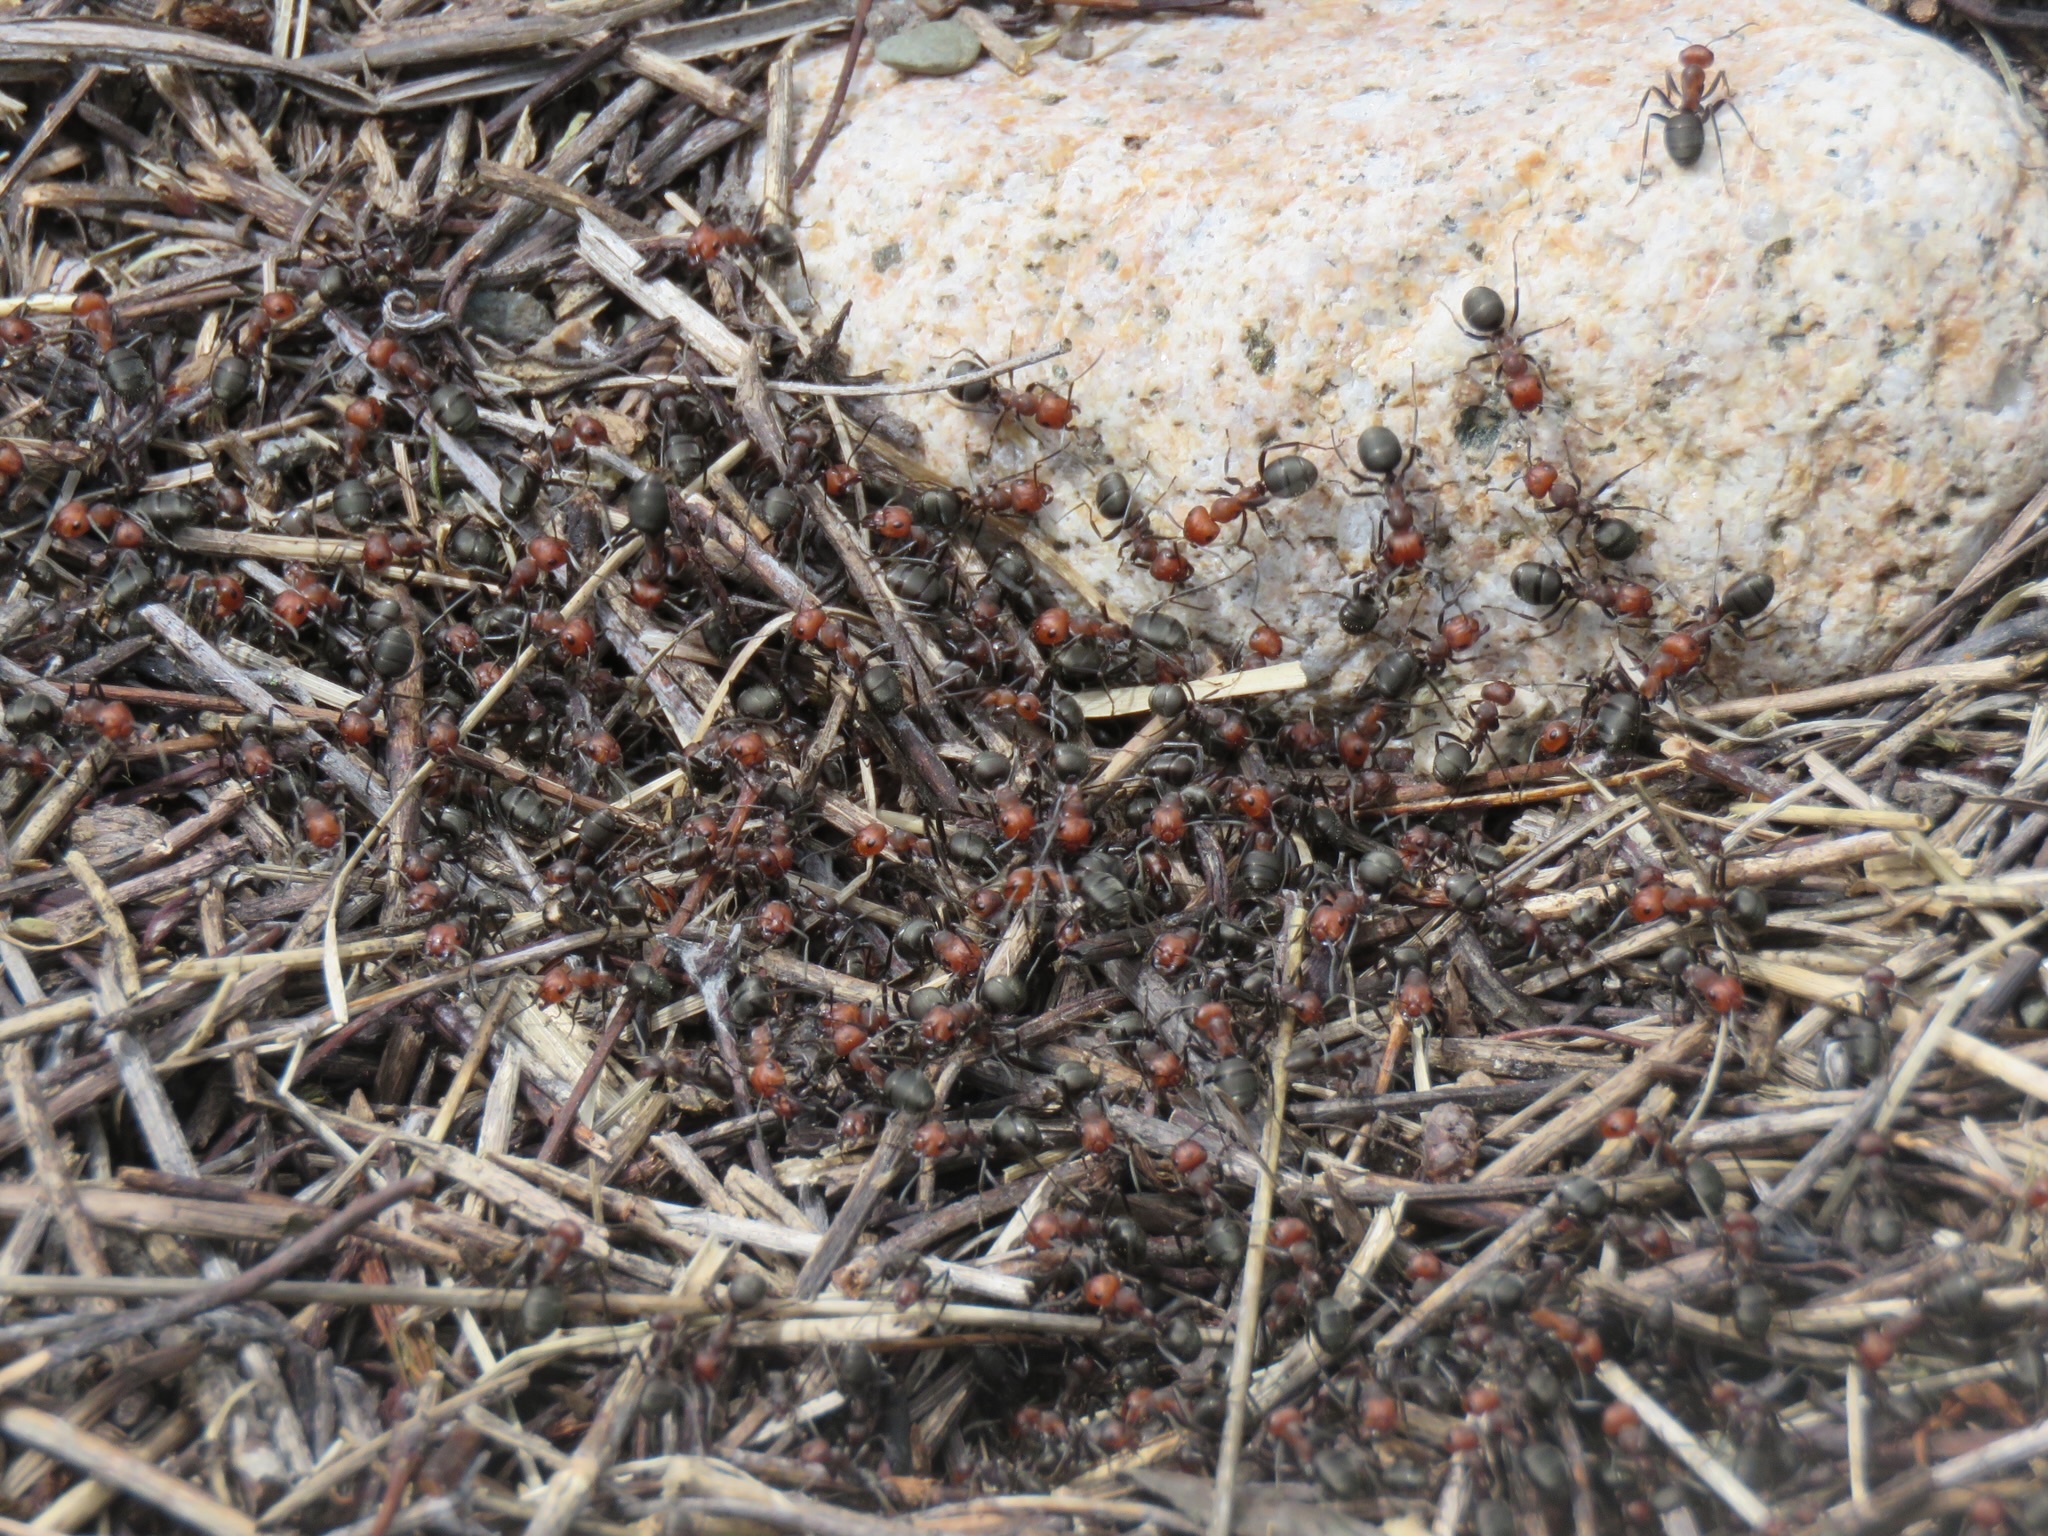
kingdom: Animalia
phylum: Arthropoda
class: Insecta
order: Hymenoptera
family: Formicidae
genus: Formica
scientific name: Formica obscuripes
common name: Western thatching ant
